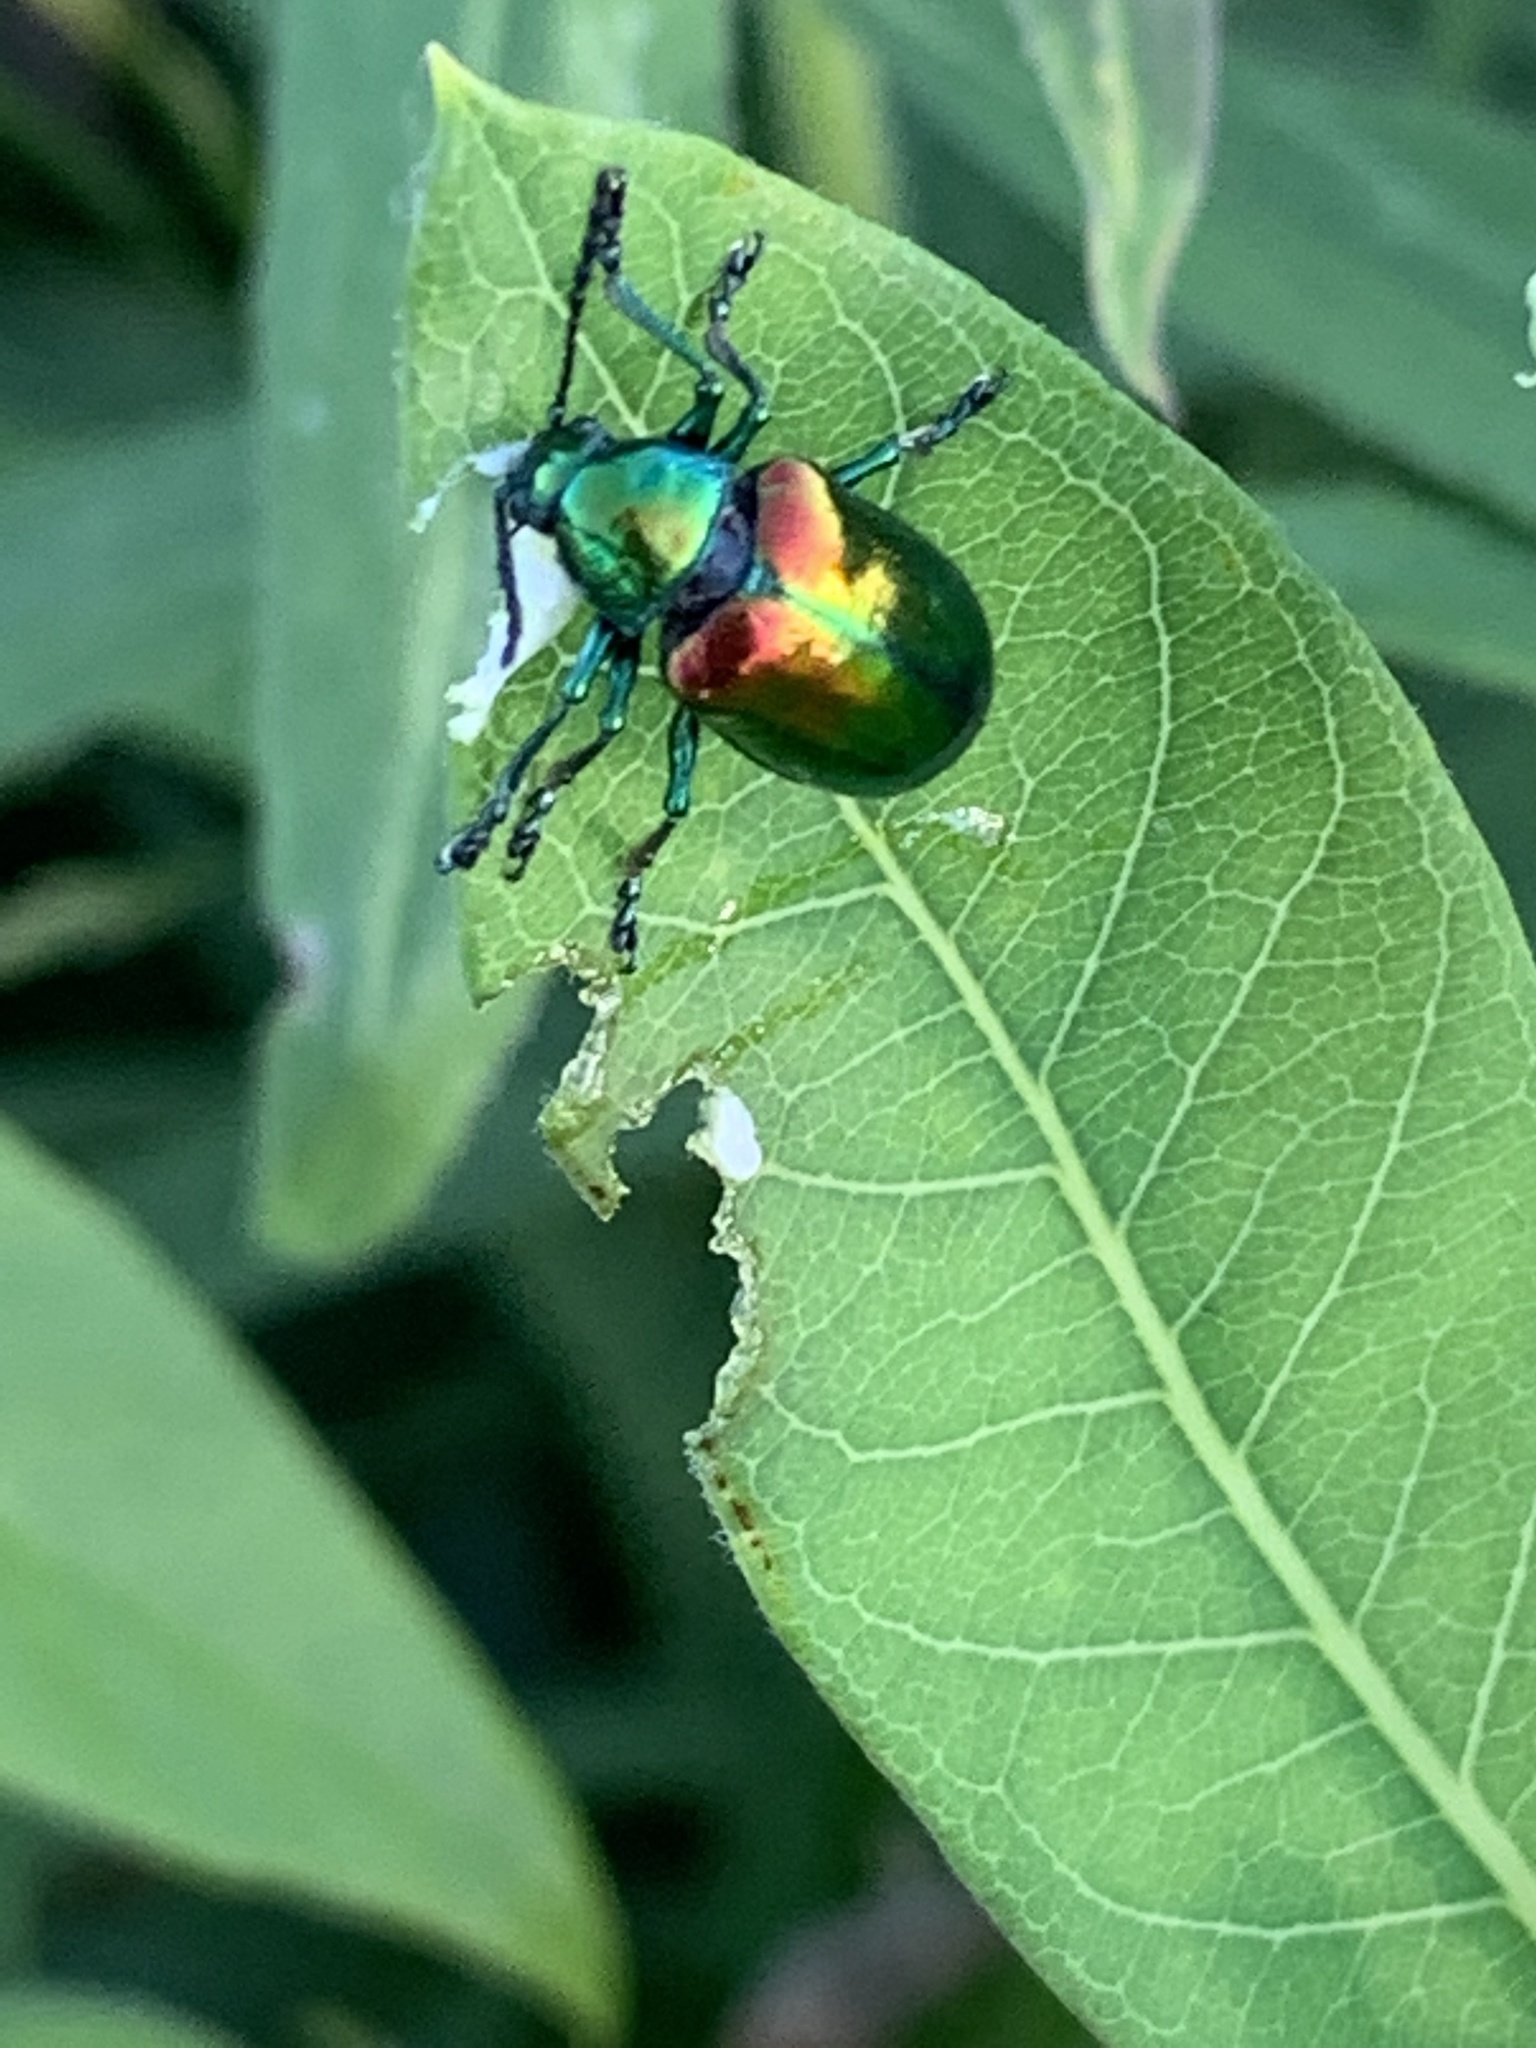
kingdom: Animalia
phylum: Arthropoda
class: Insecta
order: Coleoptera
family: Chrysomelidae
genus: Chrysochus
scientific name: Chrysochus auratus
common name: Dogbane leaf beetle
